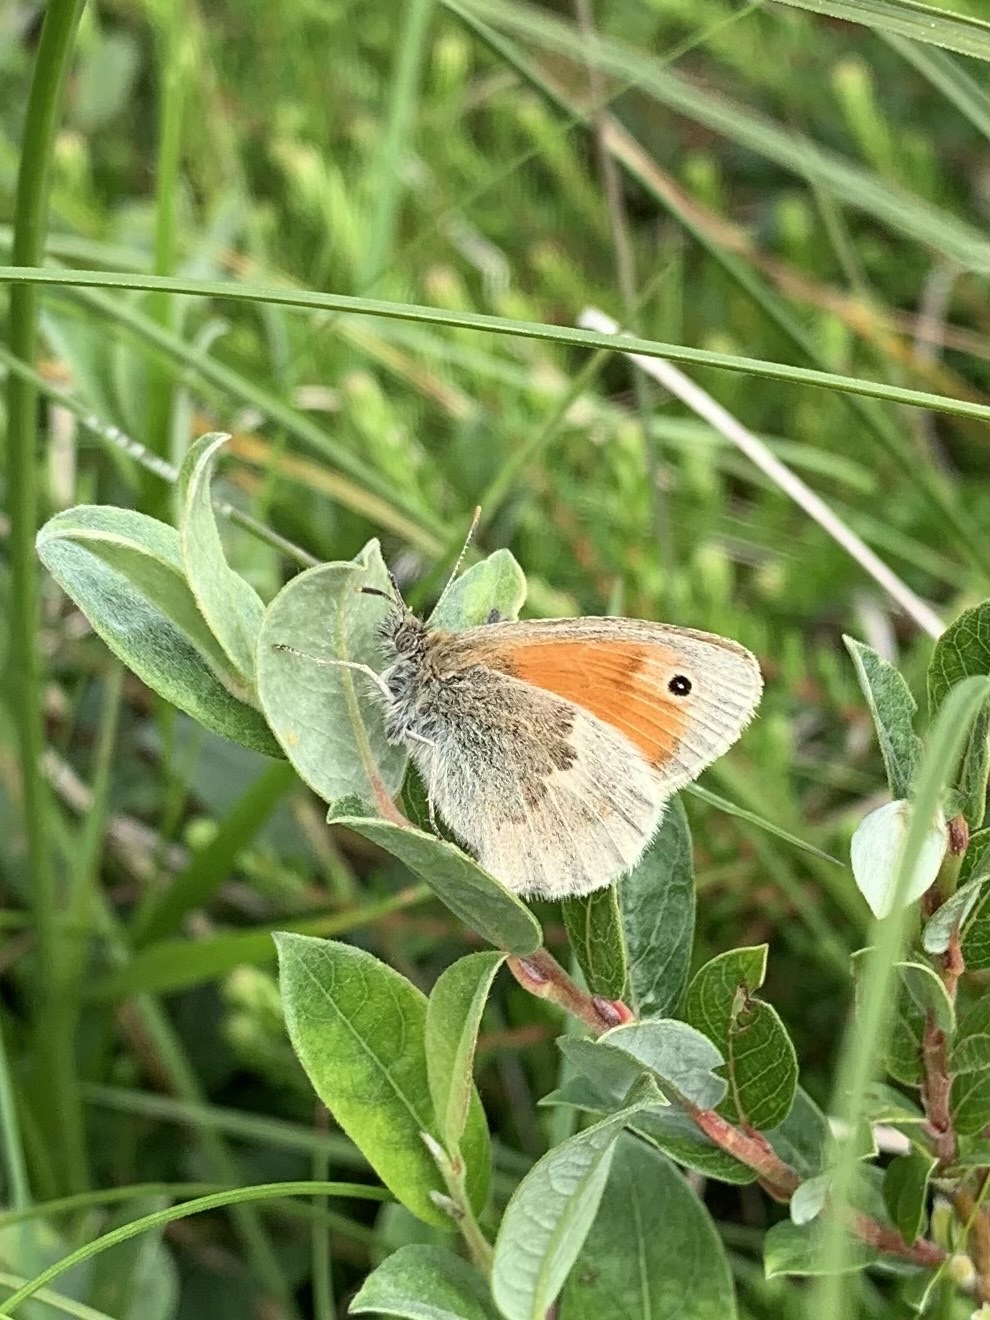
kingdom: Animalia
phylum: Arthropoda
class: Insecta
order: Lepidoptera
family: Nymphalidae
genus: Coenonympha
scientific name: Coenonympha pamphilus
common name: Small heath
